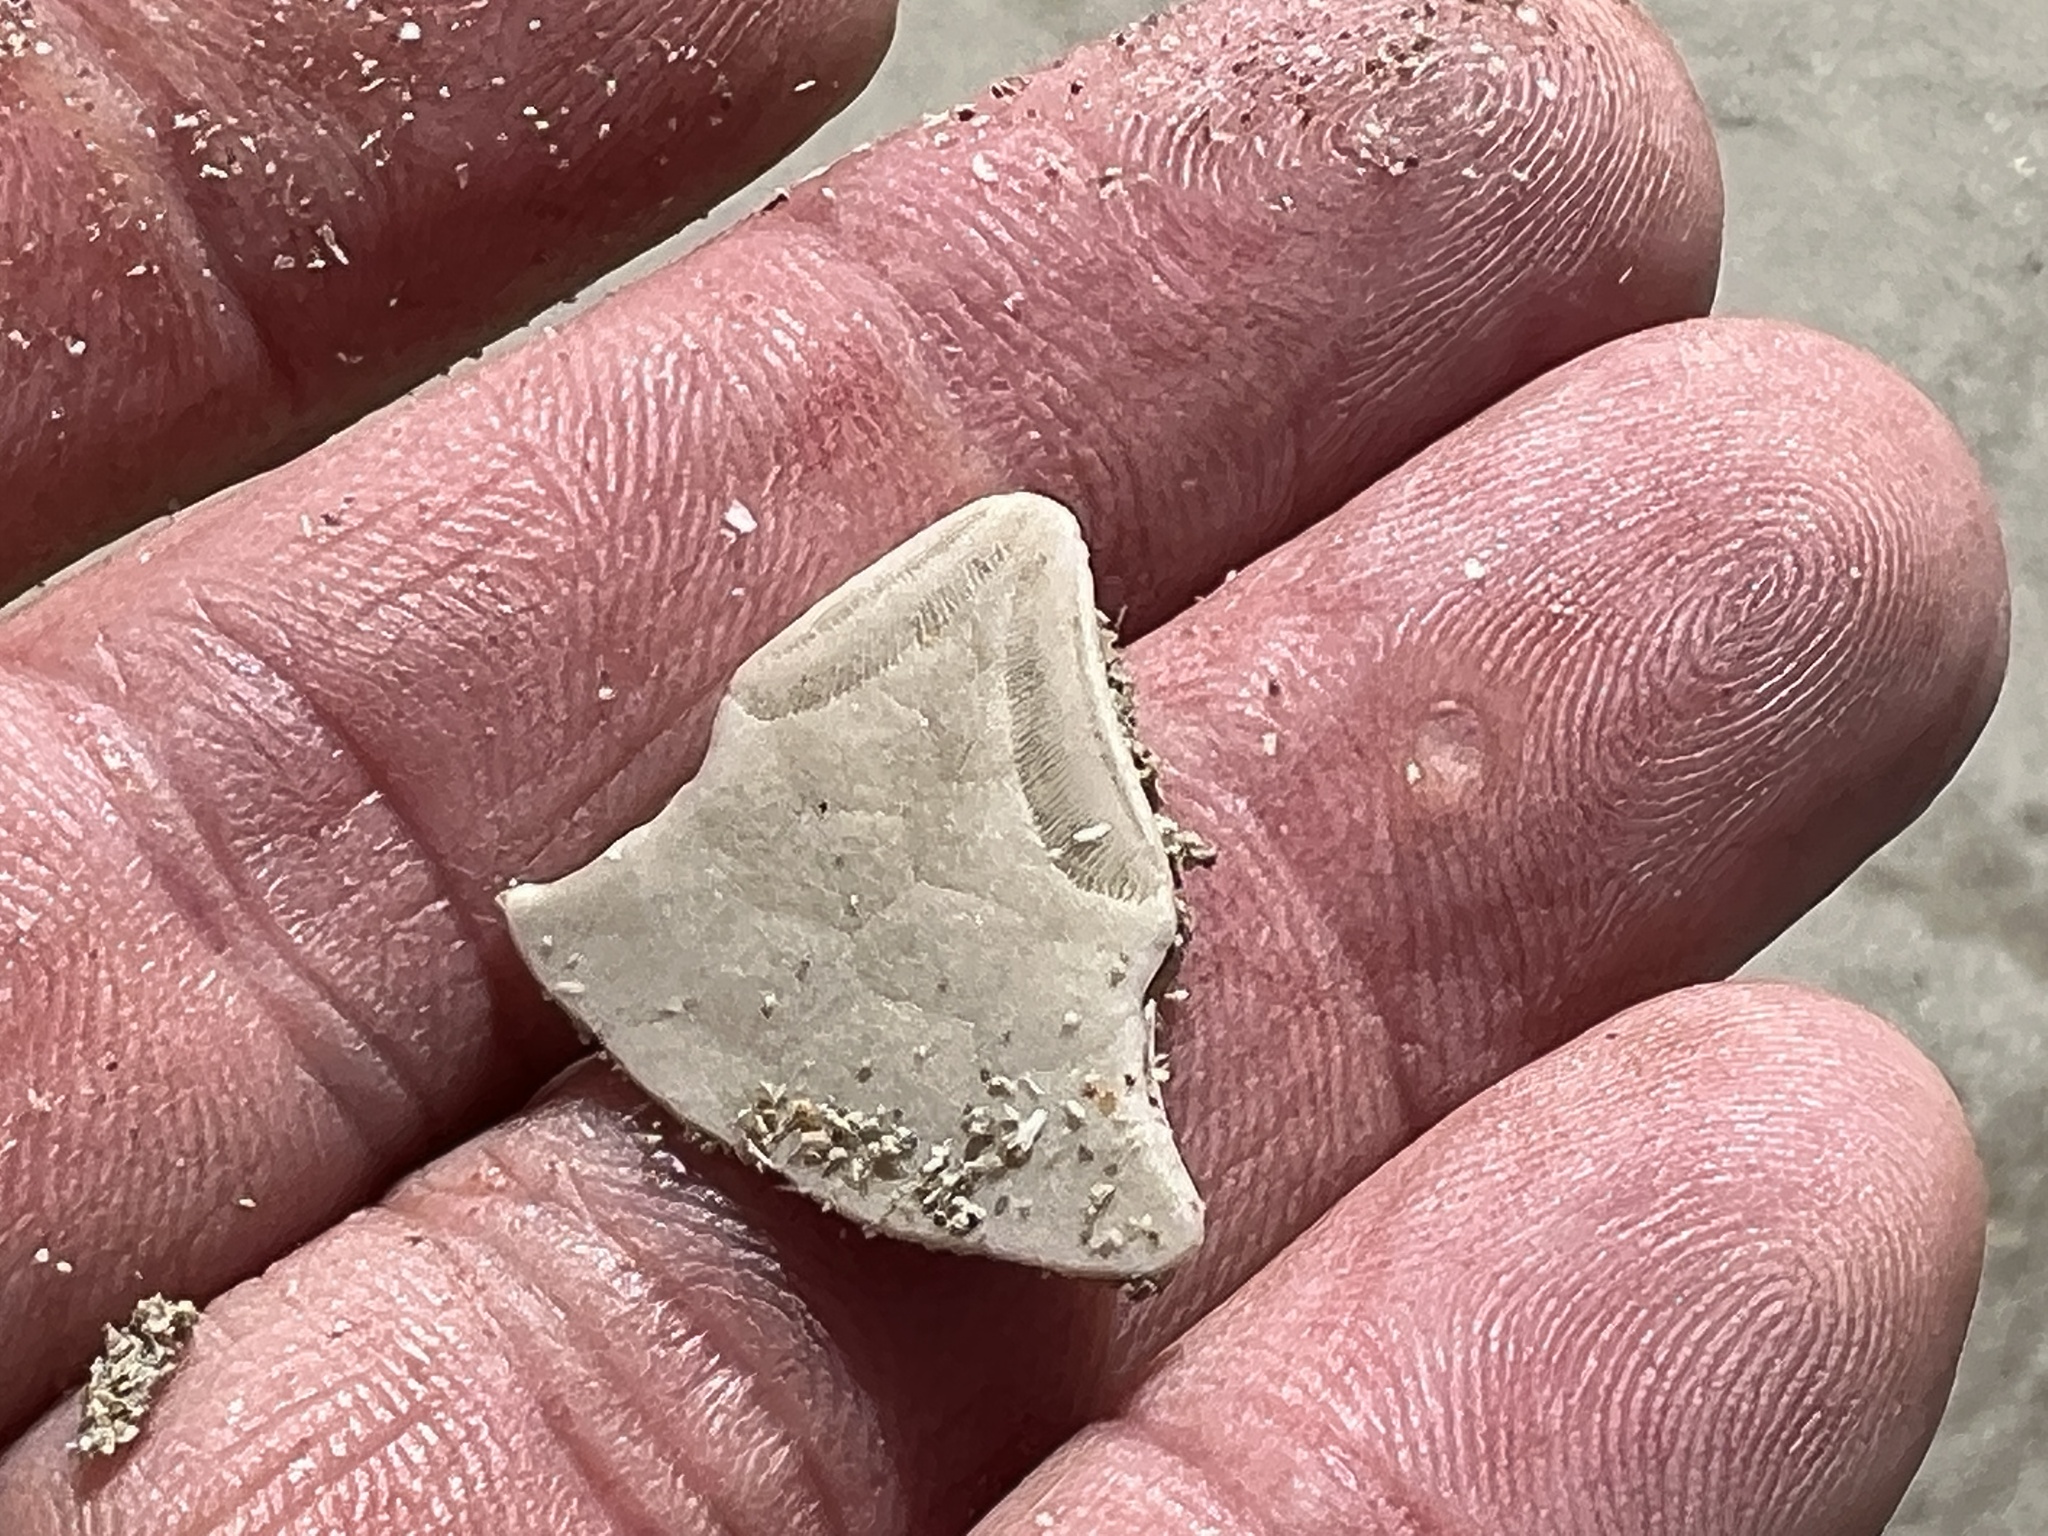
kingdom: Animalia
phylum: Echinodermata
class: Echinoidea
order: Echinolampadacea
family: Mellitidae
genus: Mellita
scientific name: Mellita quinquiesperforata
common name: Sand dollar
